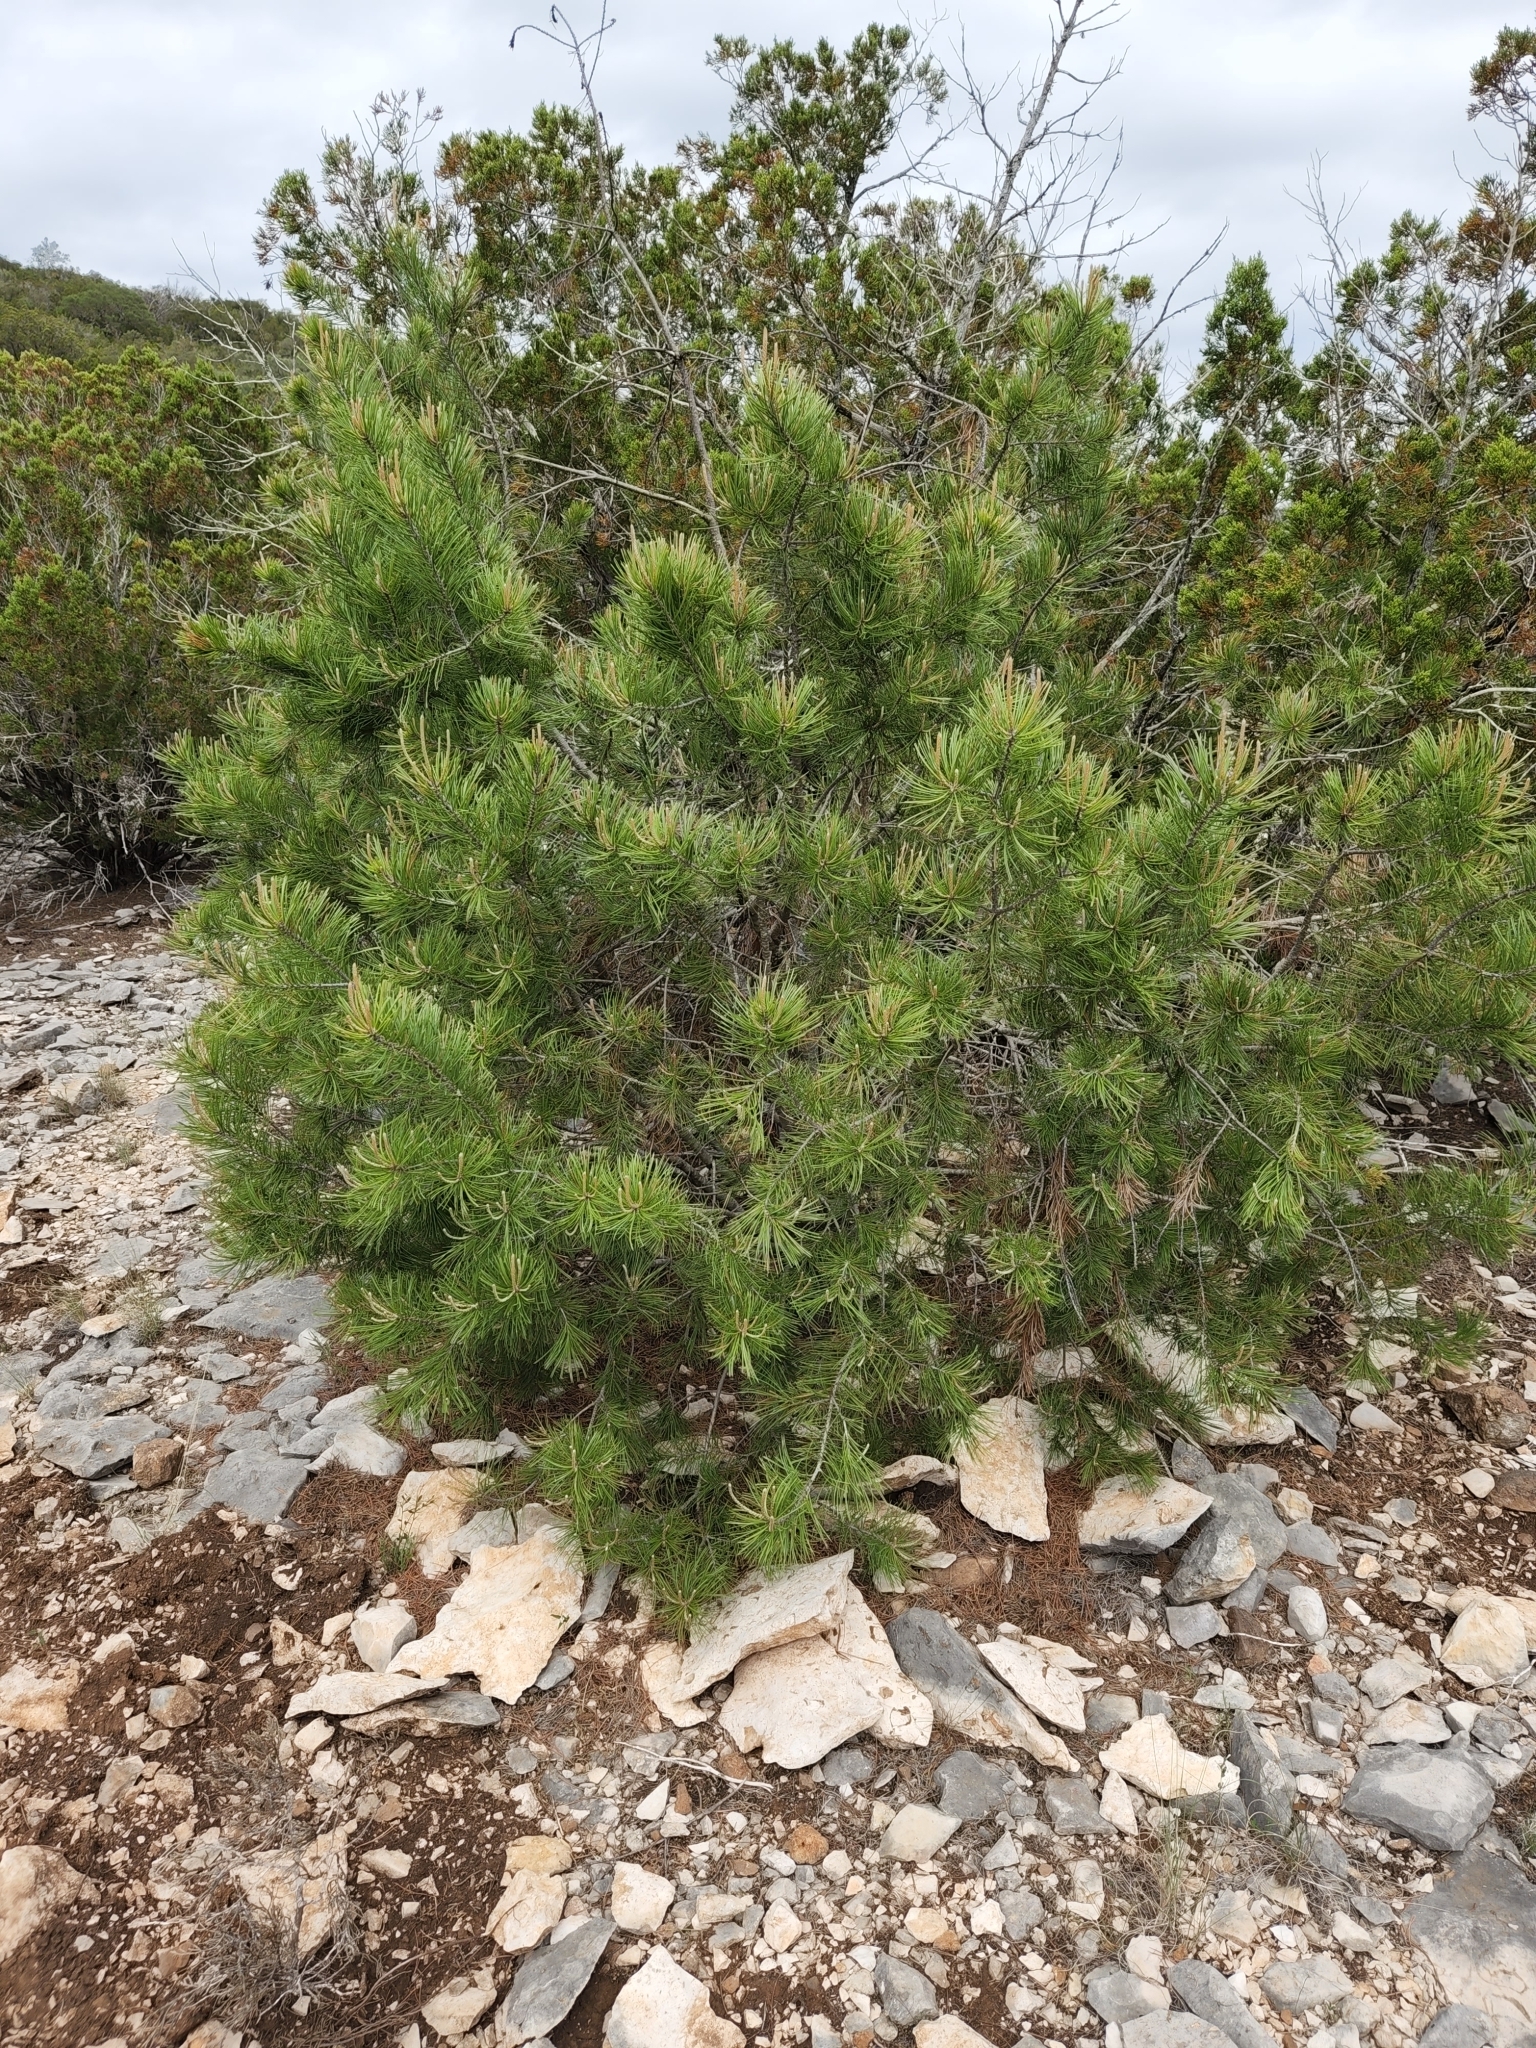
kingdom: Plantae
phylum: Tracheophyta
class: Pinopsida
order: Pinales
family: Pinaceae
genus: Pinus
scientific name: Pinus remota
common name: Nut pine
